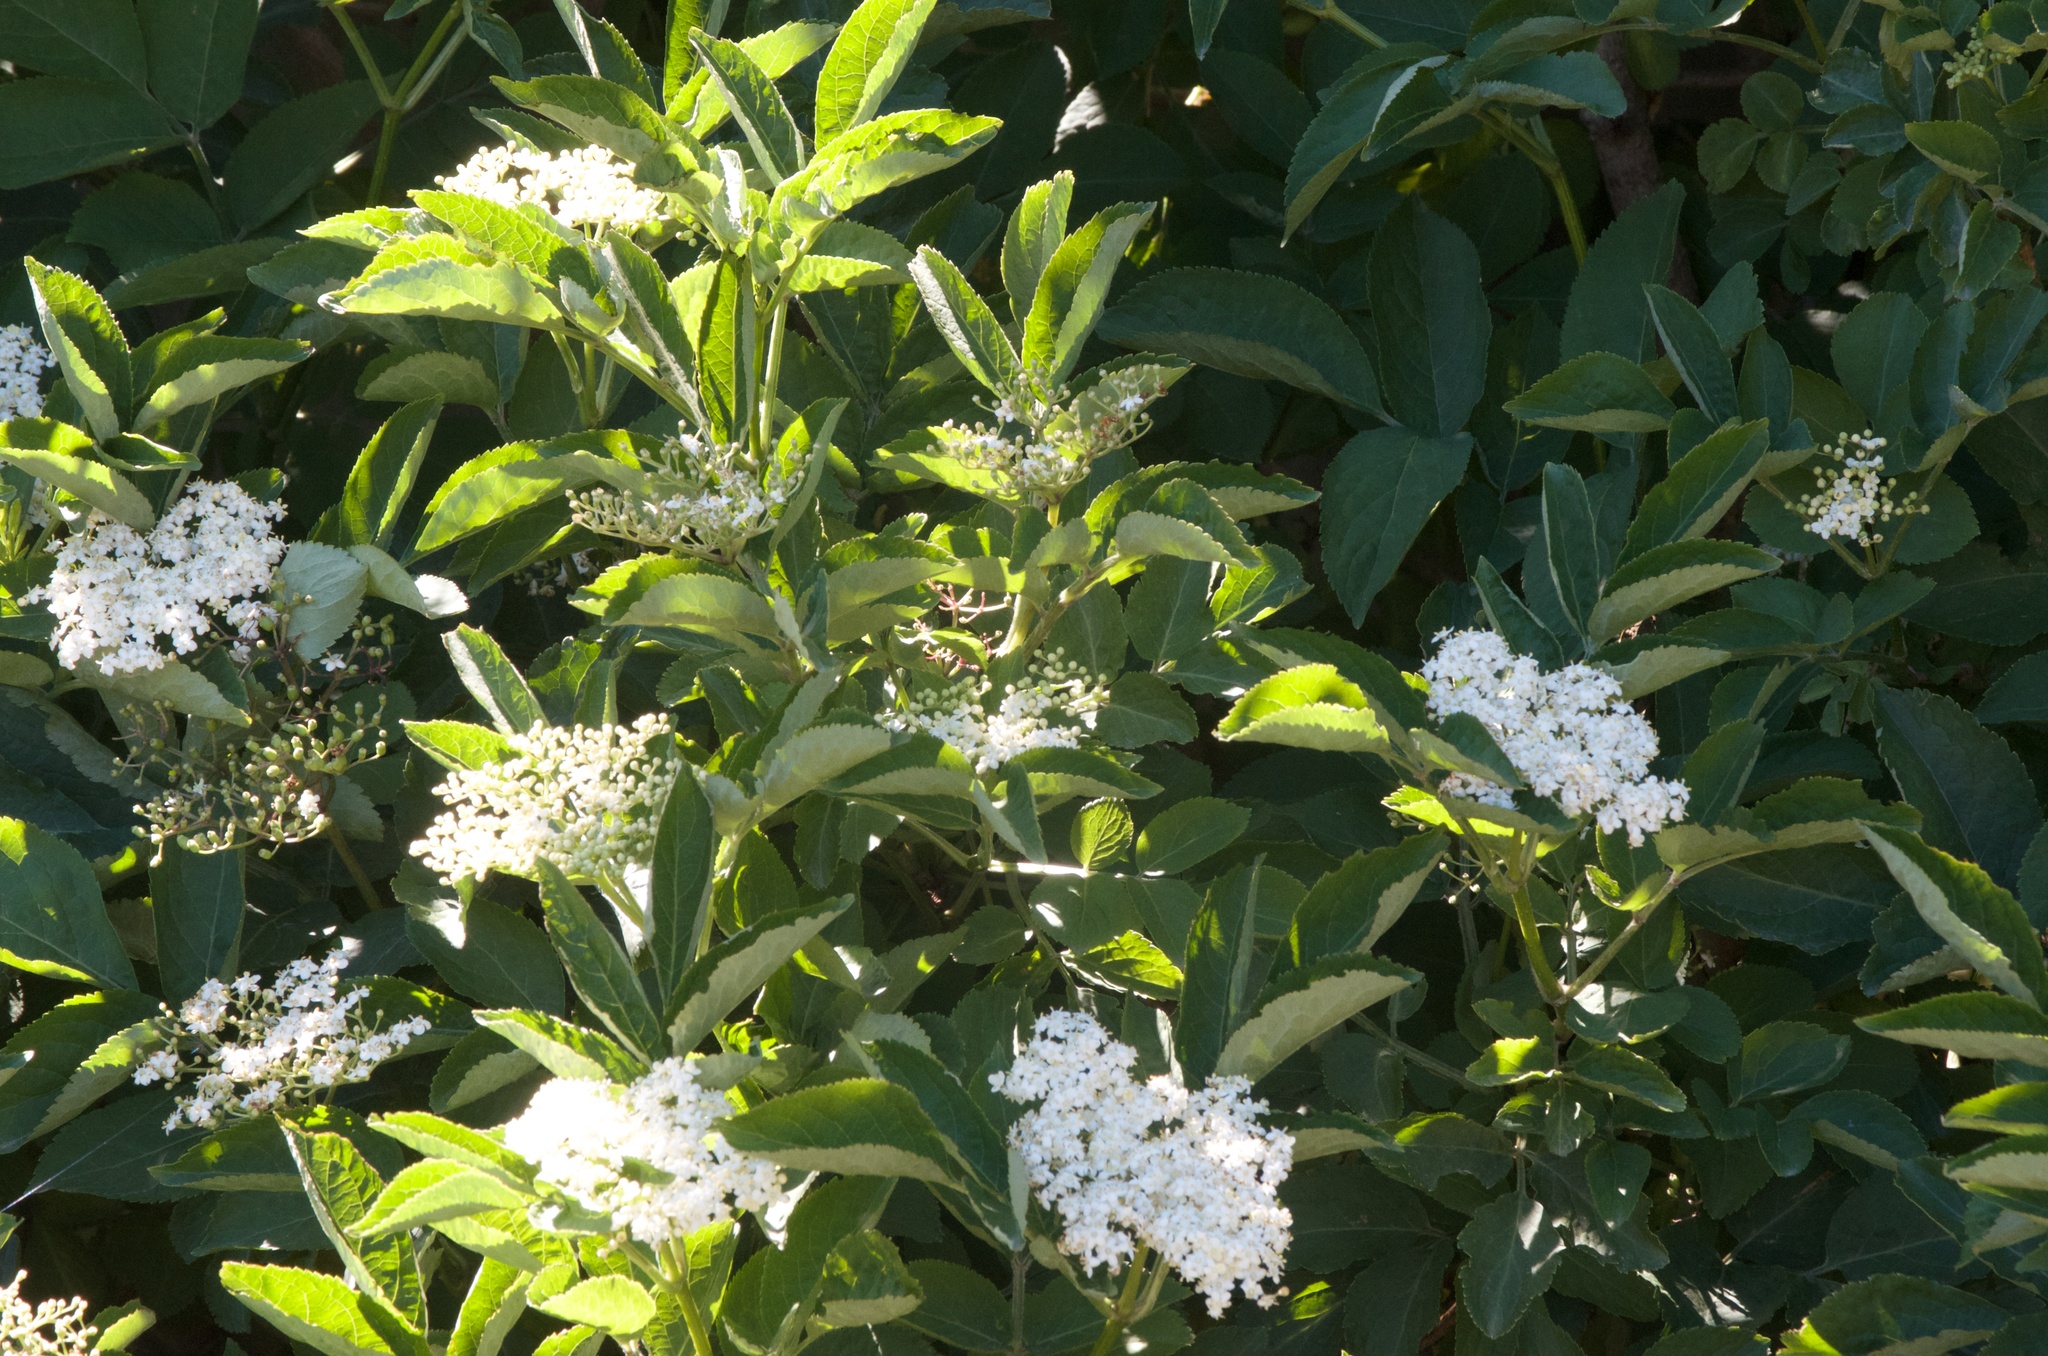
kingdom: Plantae
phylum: Tracheophyta
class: Magnoliopsida
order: Dipsacales
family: Viburnaceae
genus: Sambucus
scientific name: Sambucus nigra
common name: Elder
